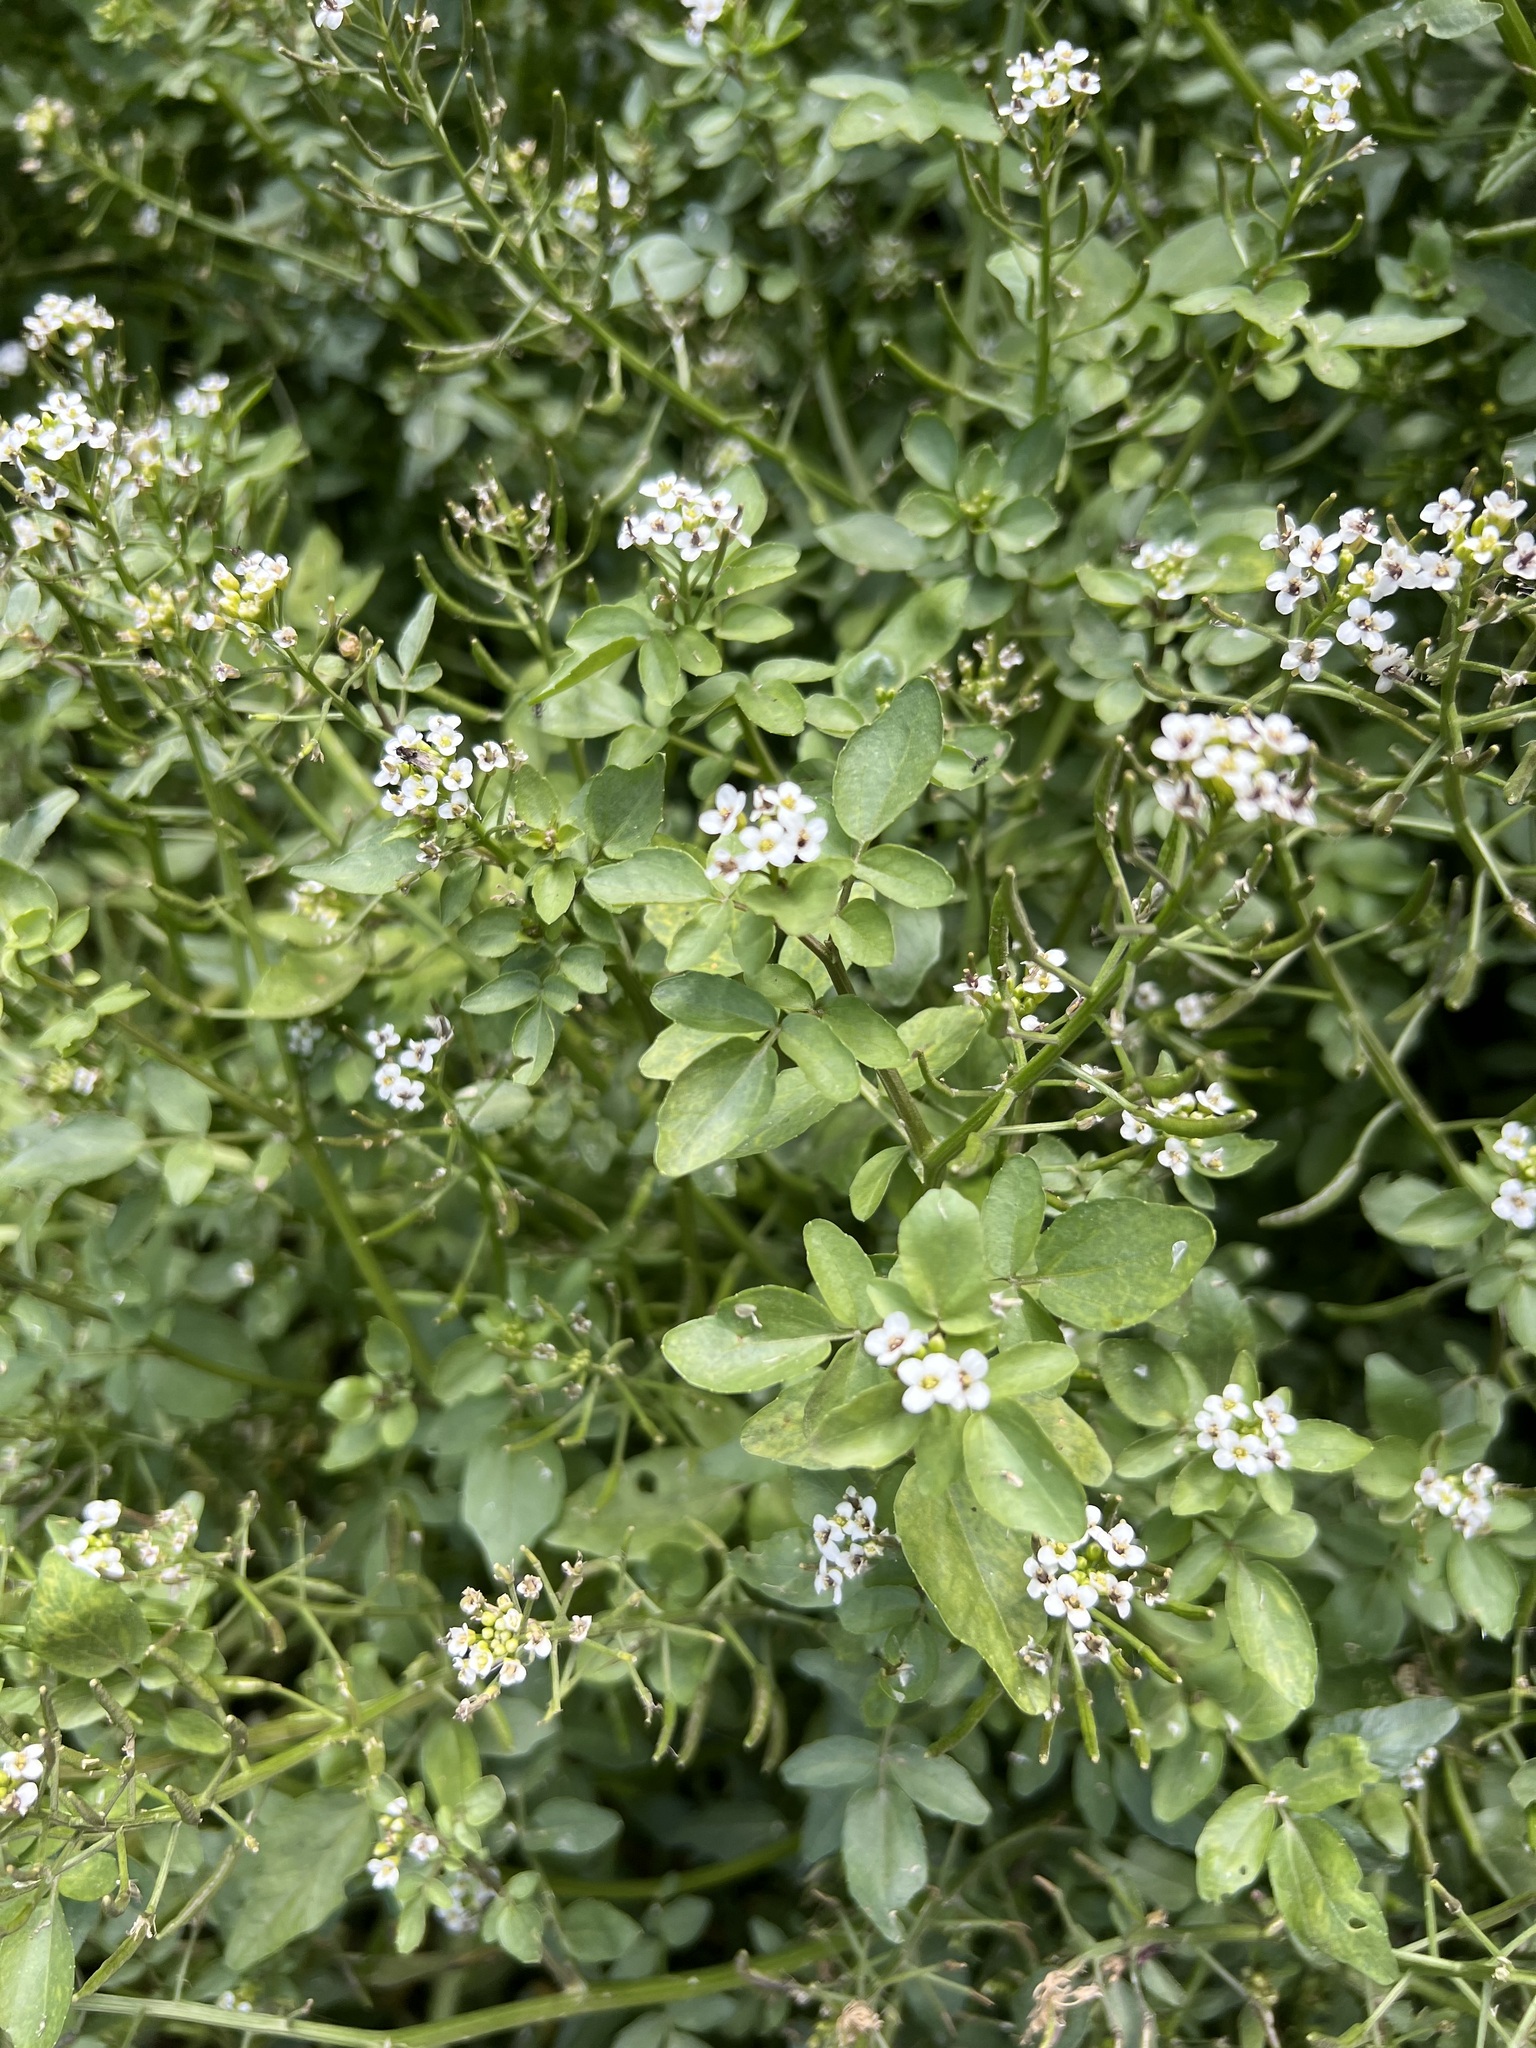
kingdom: Plantae
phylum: Tracheophyta
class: Magnoliopsida
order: Brassicales
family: Brassicaceae
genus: Nasturtium
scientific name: Nasturtium officinale
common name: Watercress
